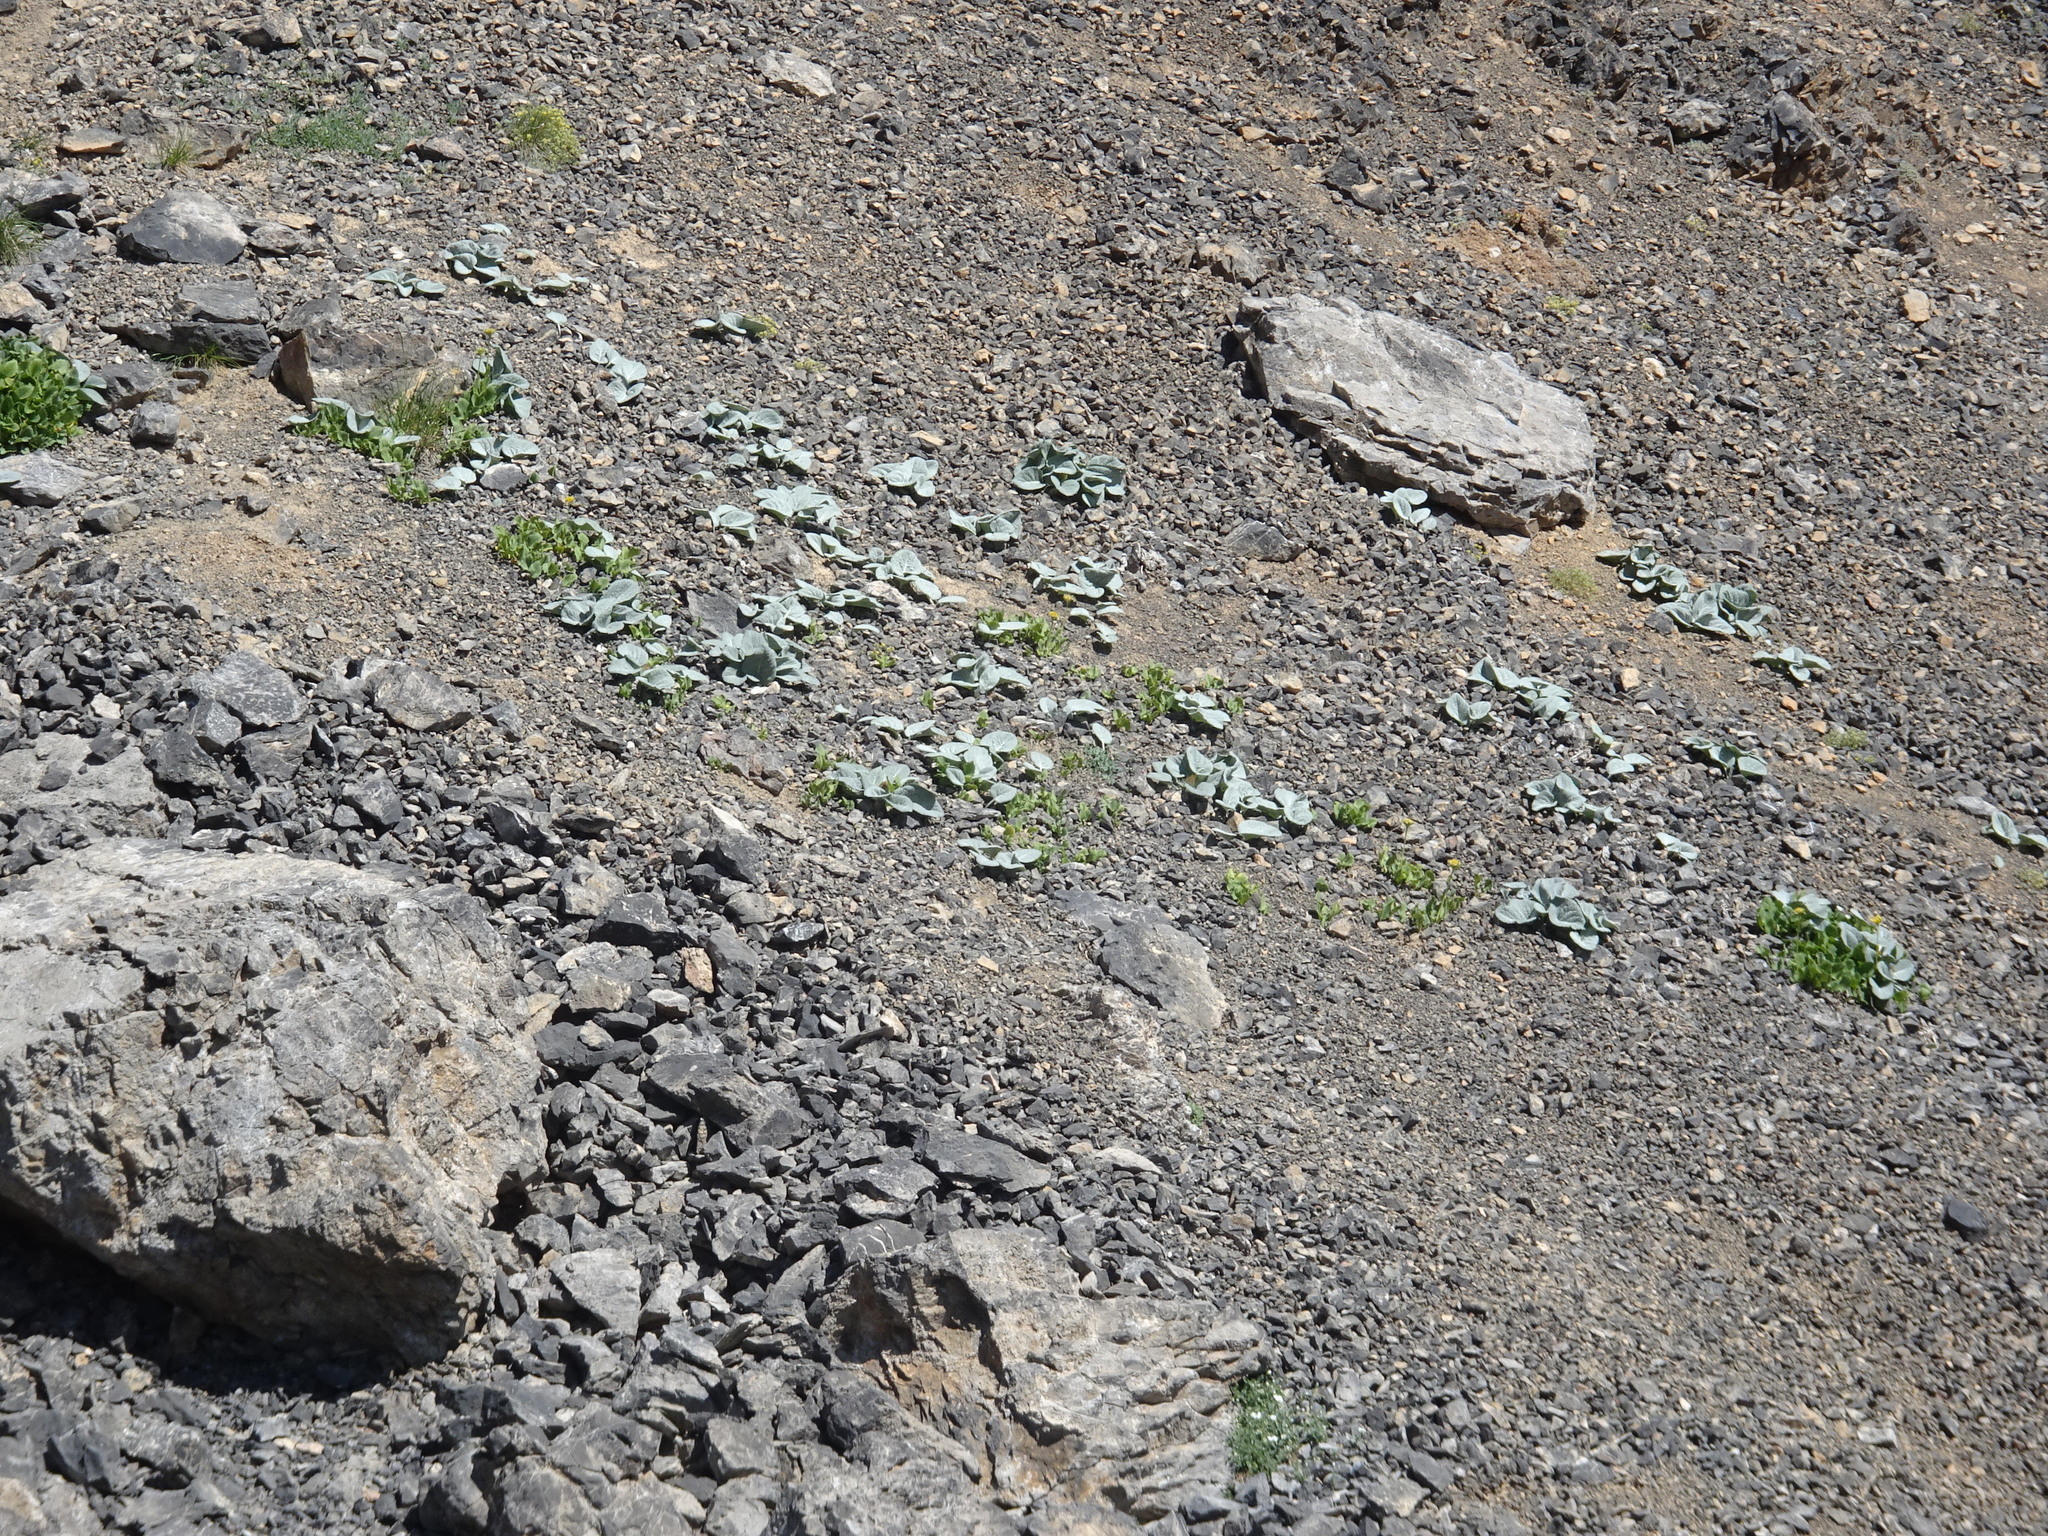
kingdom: Plantae
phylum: Tracheophyta
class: Magnoliopsida
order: Asterales
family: Asteraceae
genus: Berardia
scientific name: Berardia lanuginosa
